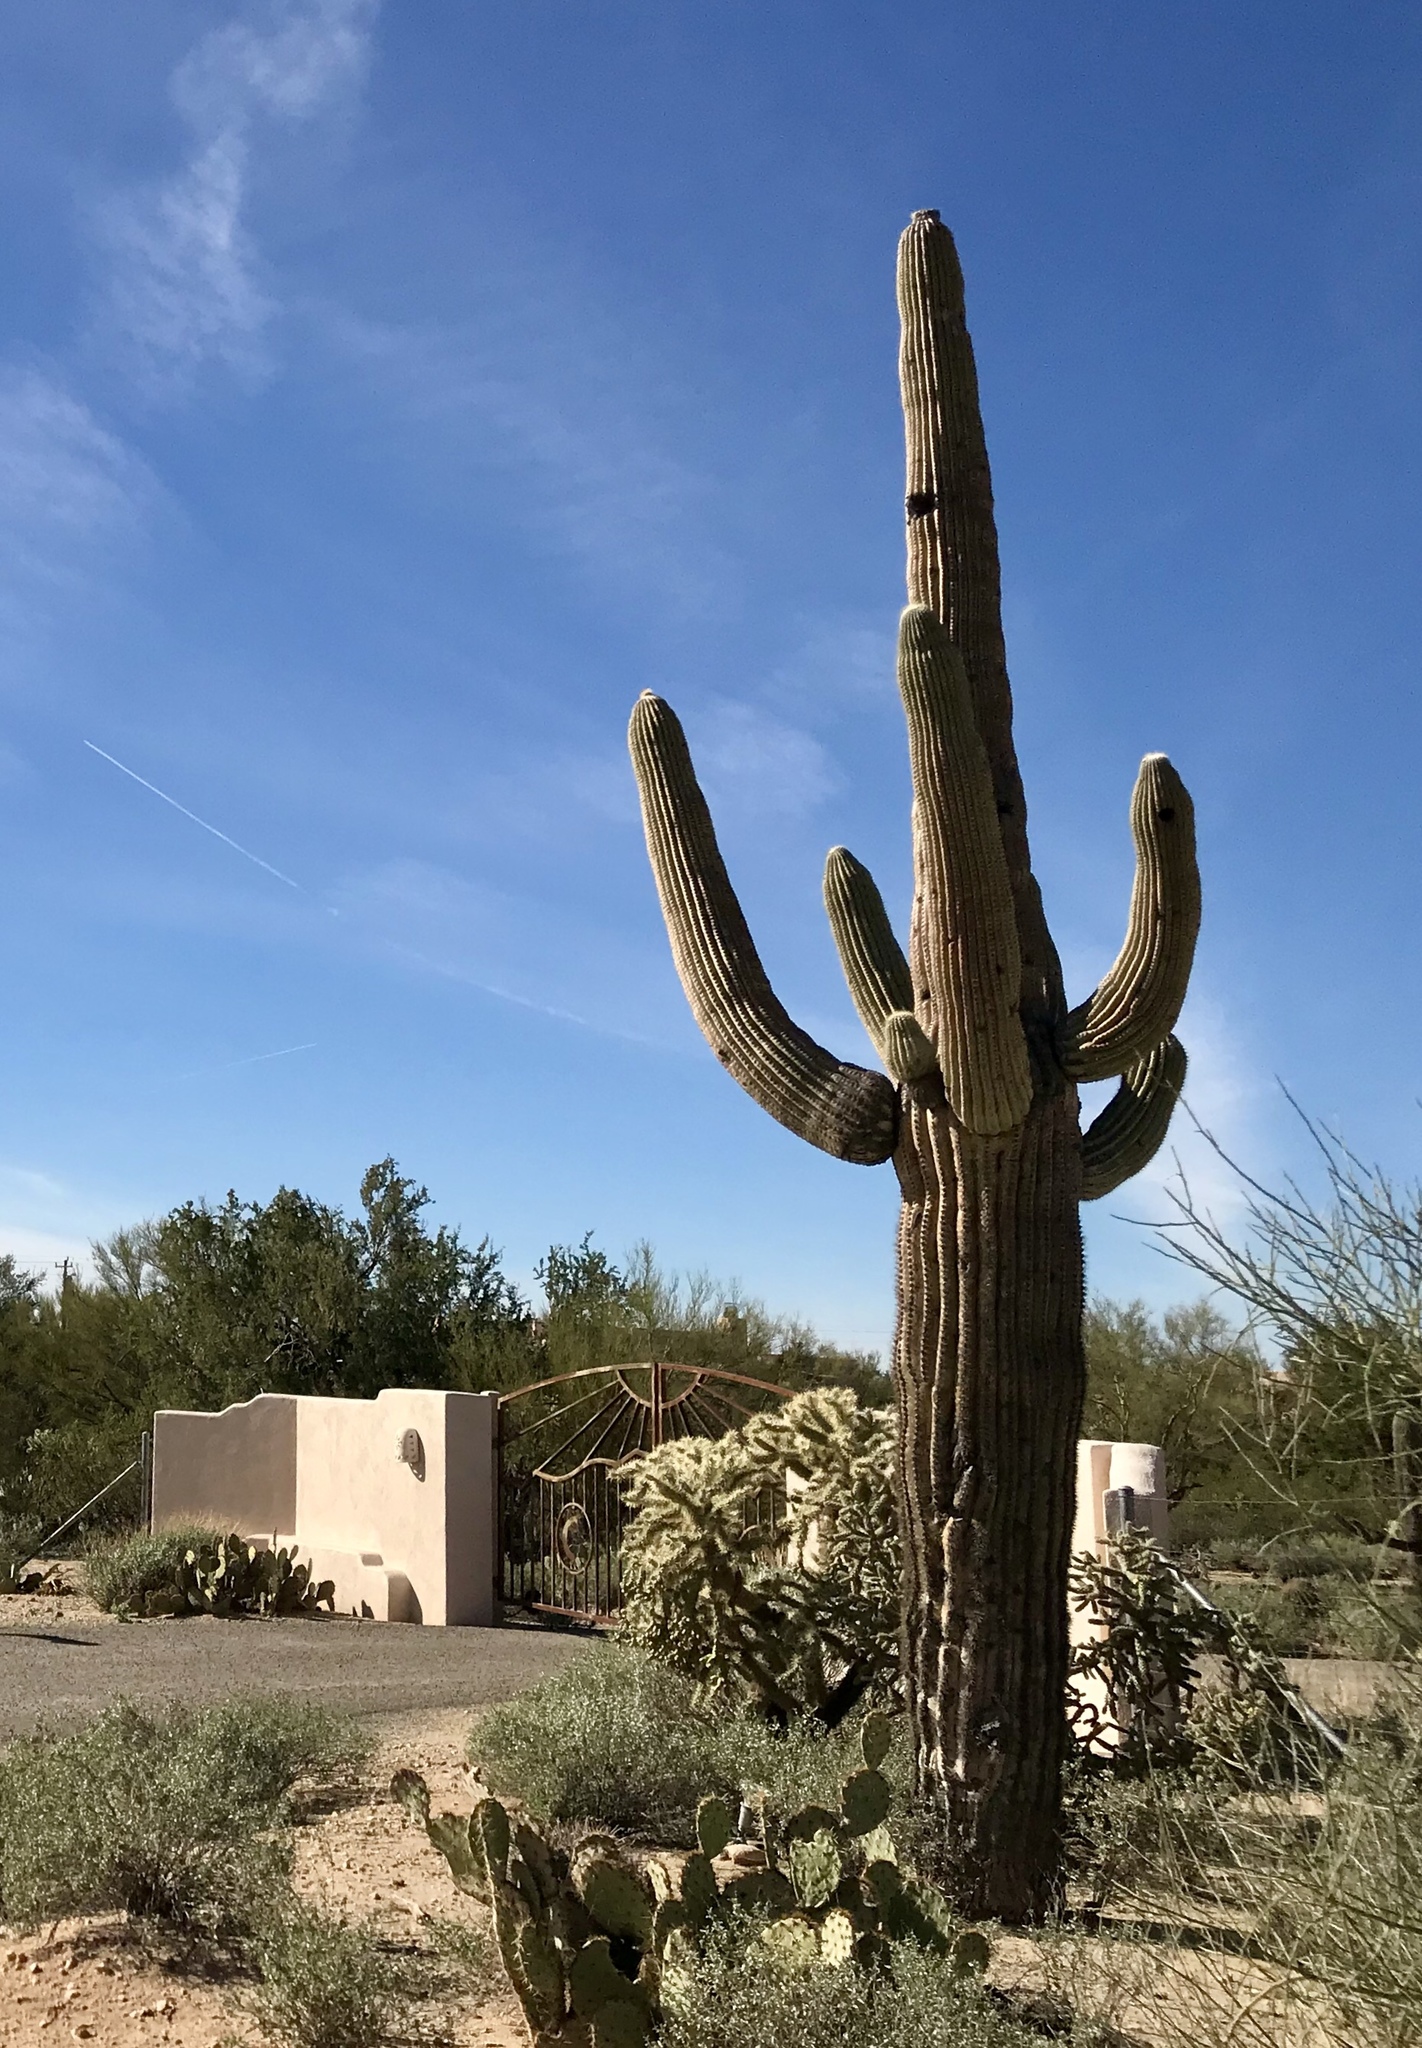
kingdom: Plantae
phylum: Tracheophyta
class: Magnoliopsida
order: Caryophyllales
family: Cactaceae
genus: Carnegiea
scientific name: Carnegiea gigantea
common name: Saguaro
